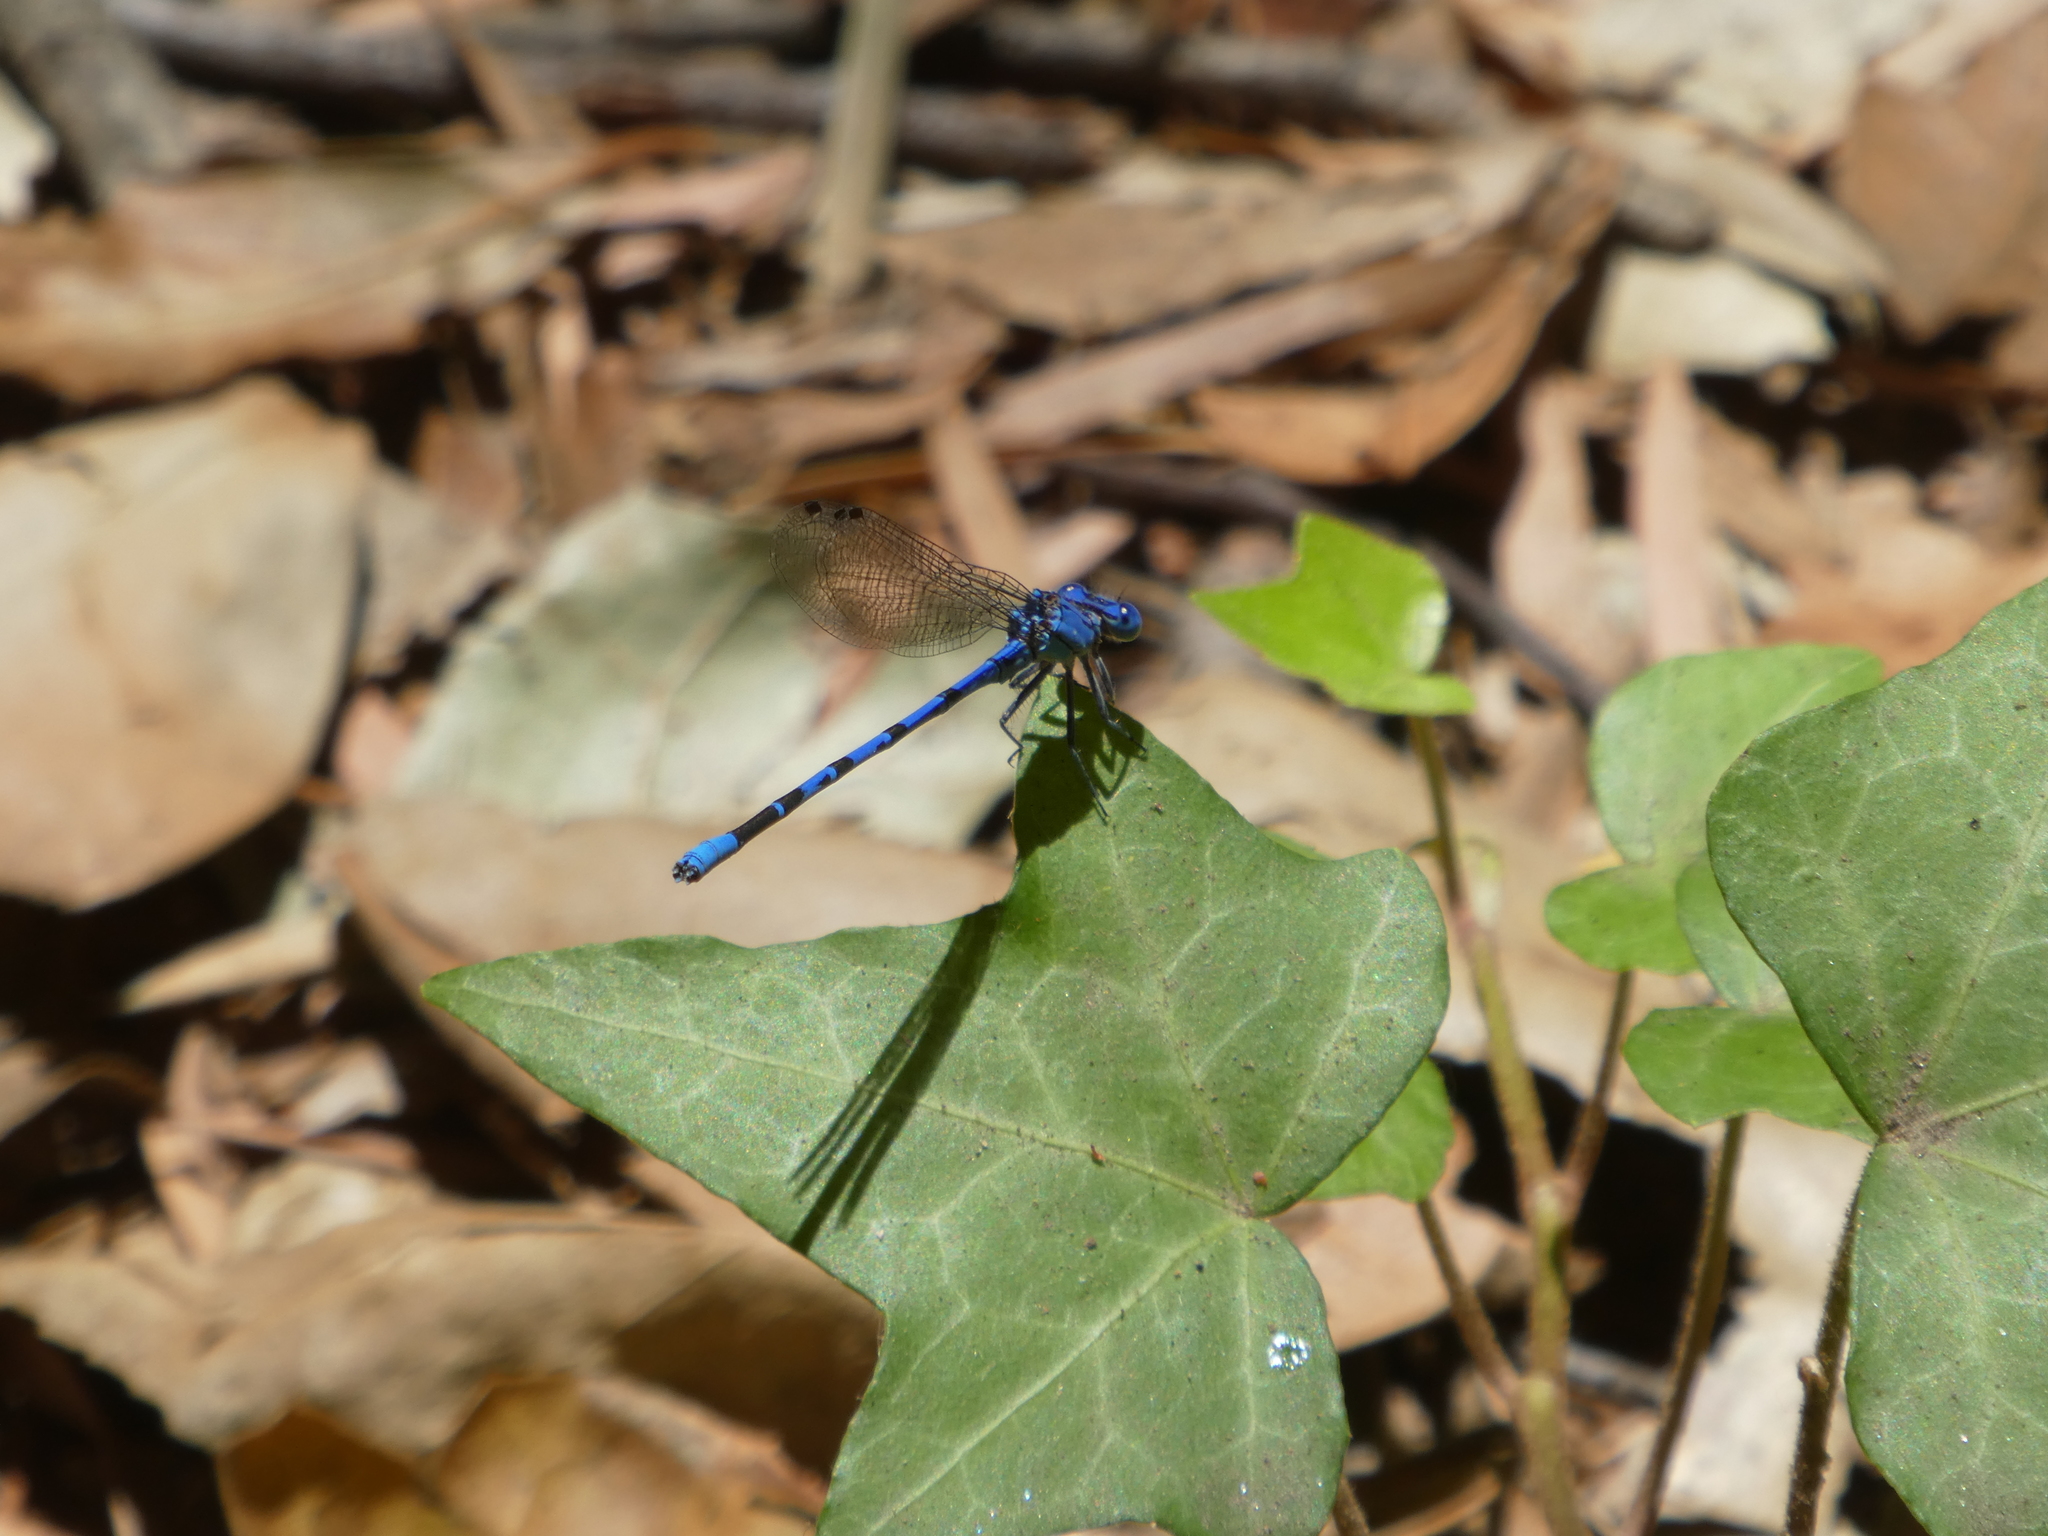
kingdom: Animalia
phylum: Arthropoda
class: Insecta
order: Odonata
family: Coenagrionidae
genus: Argia
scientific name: Argia vivida
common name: Vivid dancer
